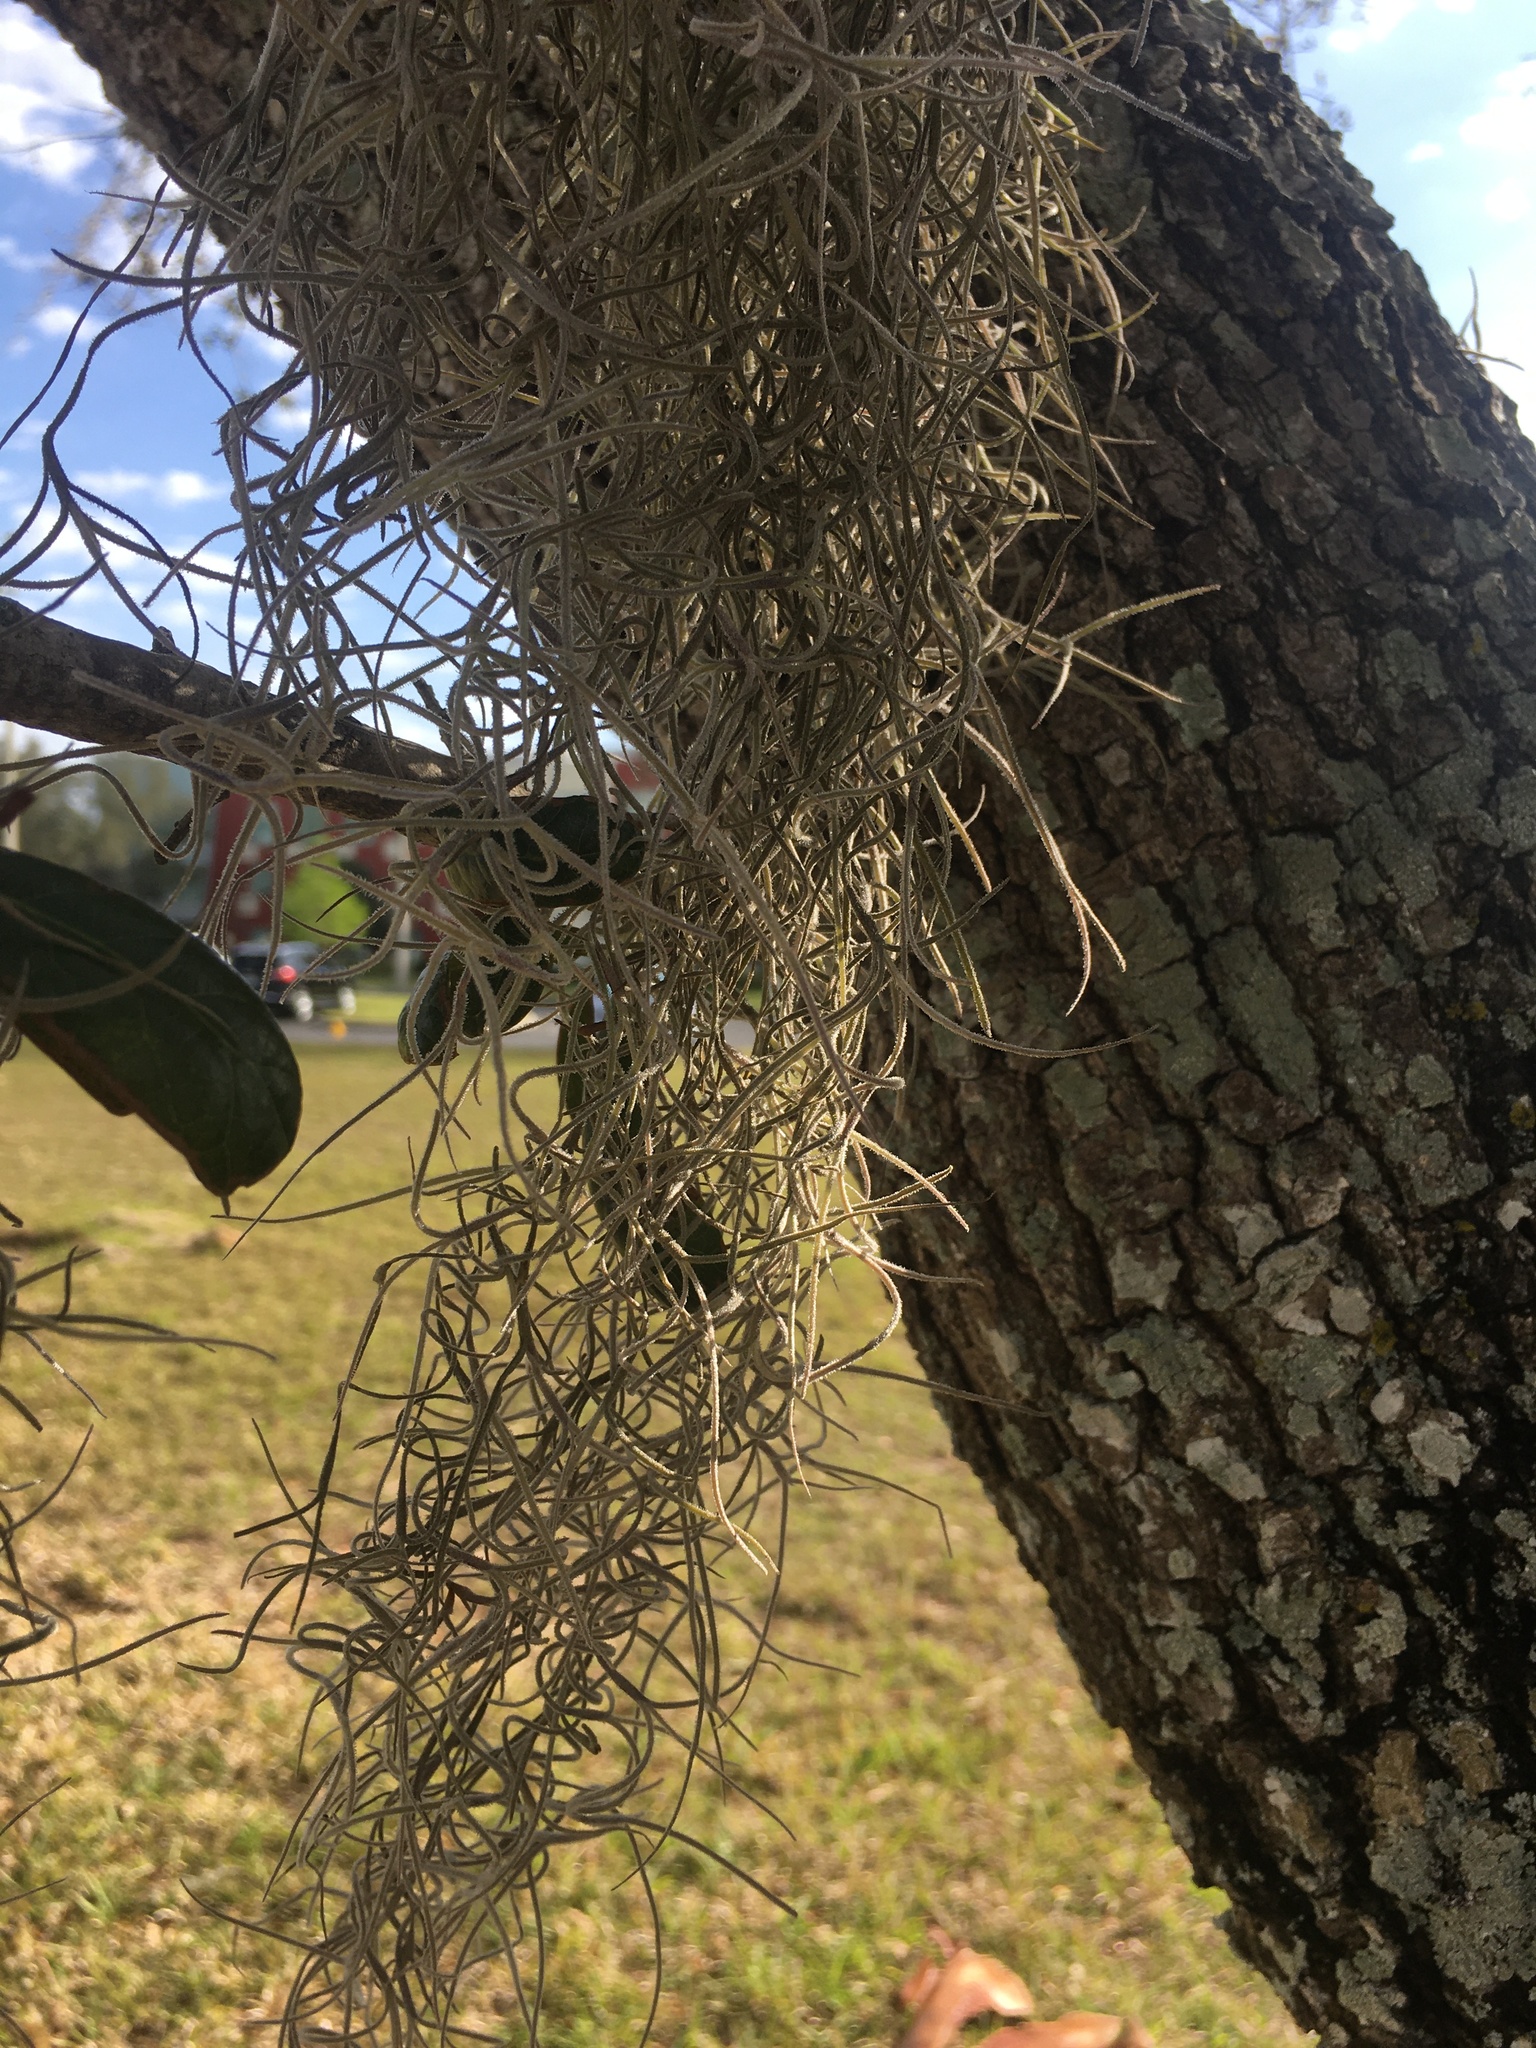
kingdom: Plantae
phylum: Tracheophyta
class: Liliopsida
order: Poales
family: Bromeliaceae
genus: Tillandsia
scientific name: Tillandsia usneoides
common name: Spanish moss
